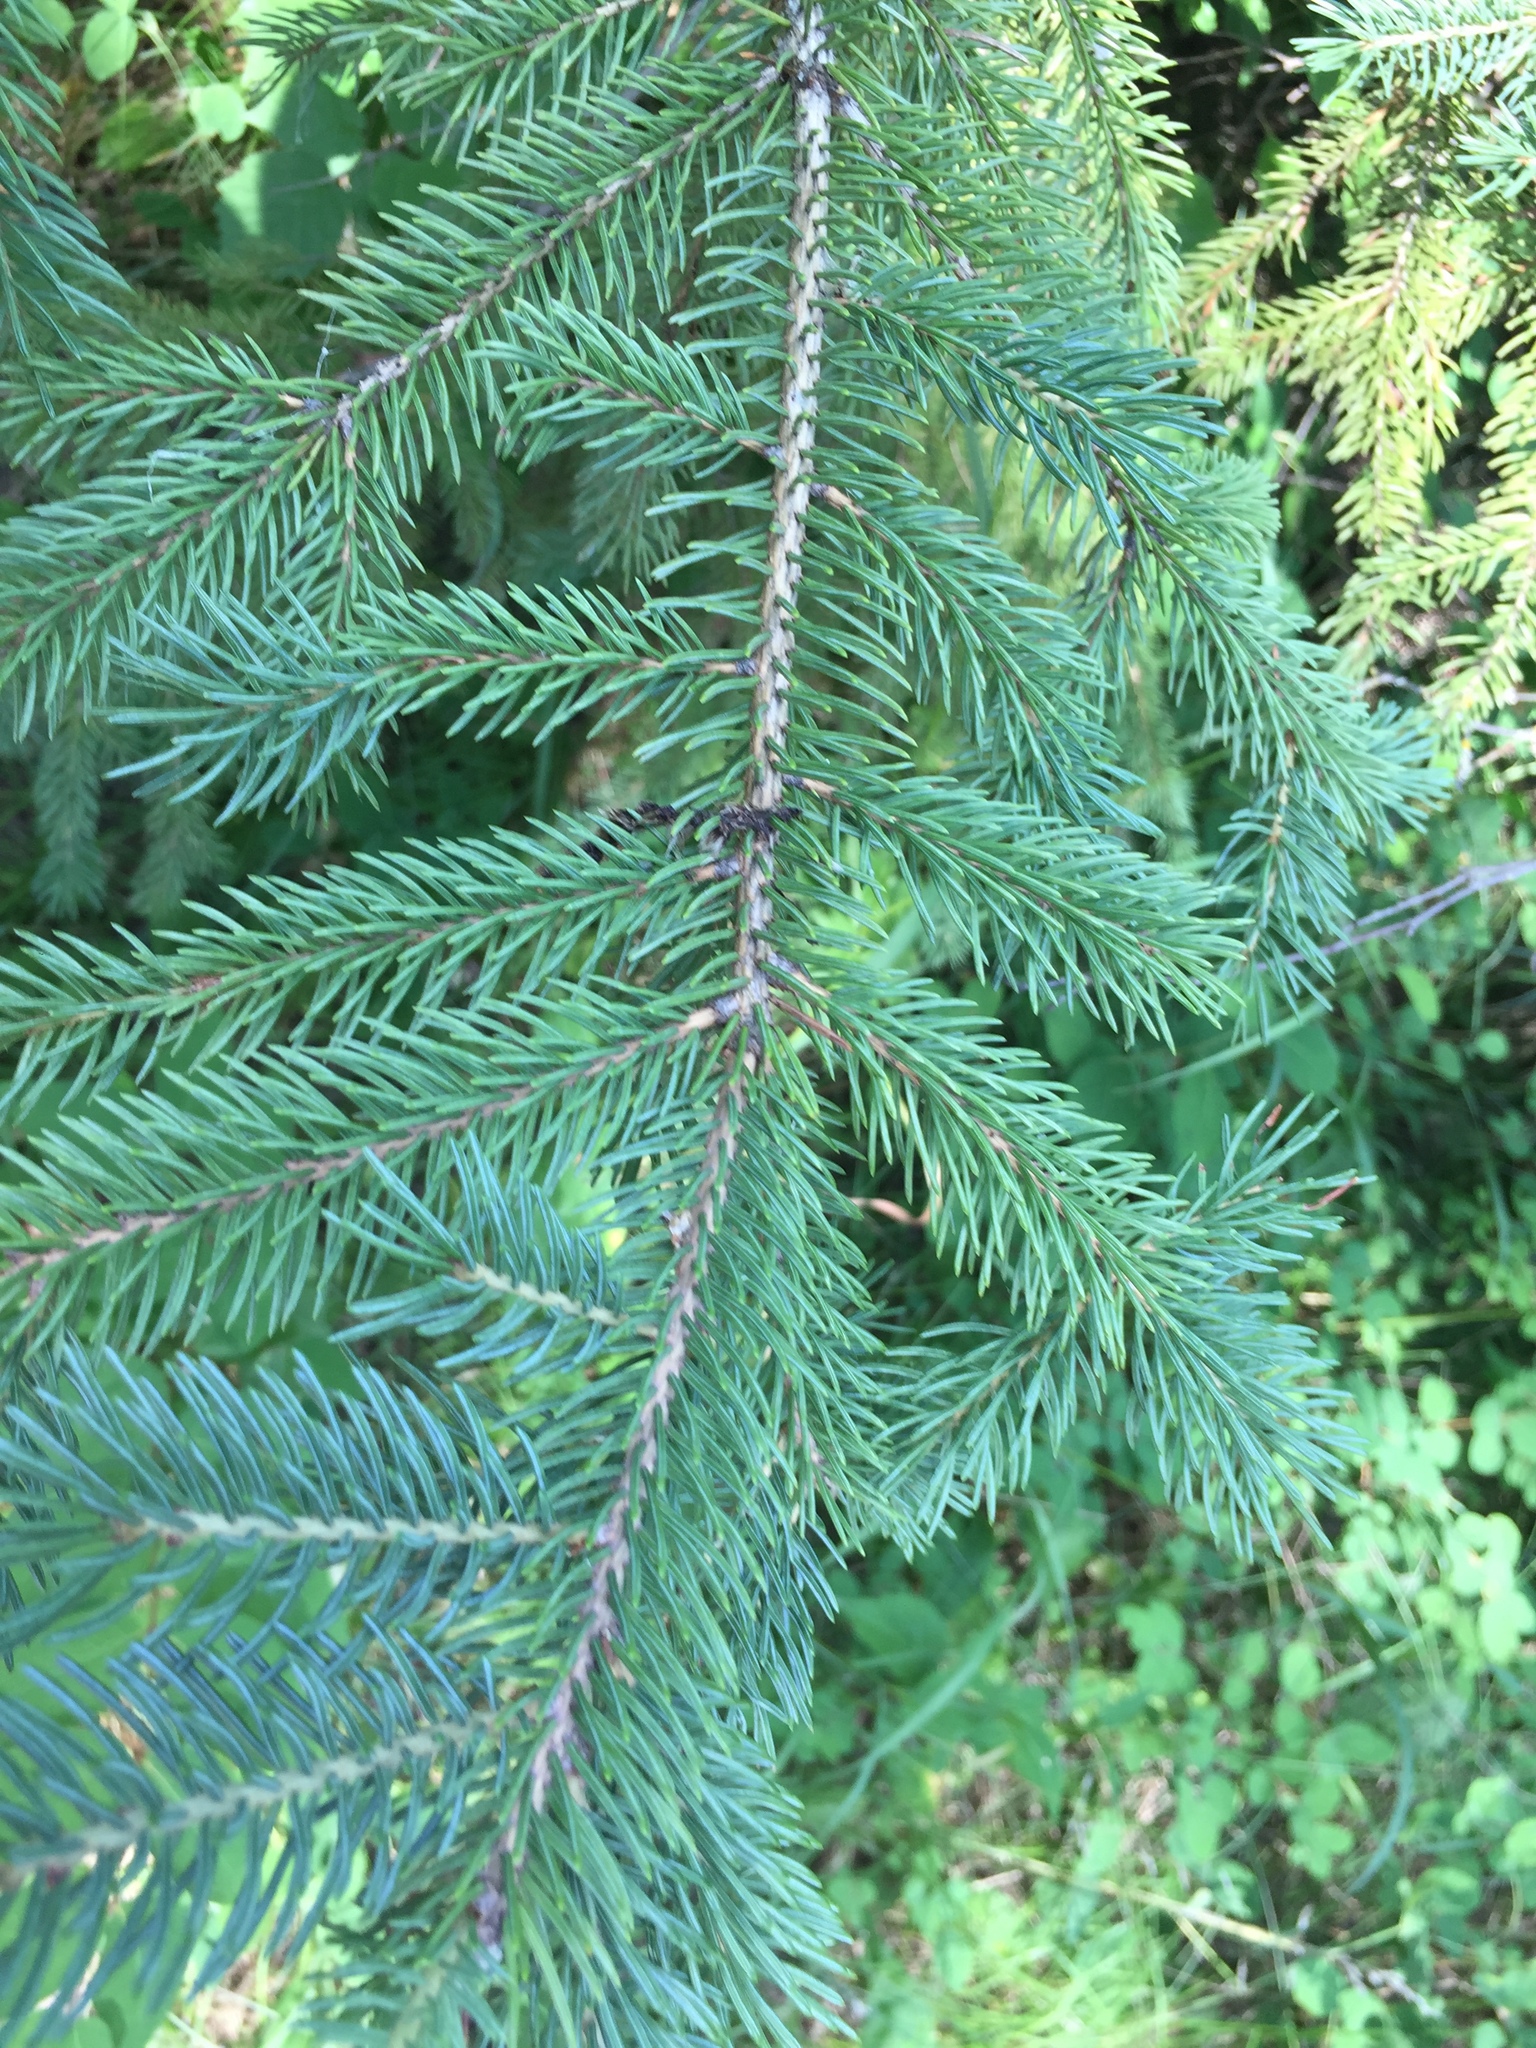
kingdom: Plantae
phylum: Tracheophyta
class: Pinopsida
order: Pinales
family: Pinaceae
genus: Picea
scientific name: Picea glauca
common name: White spruce
